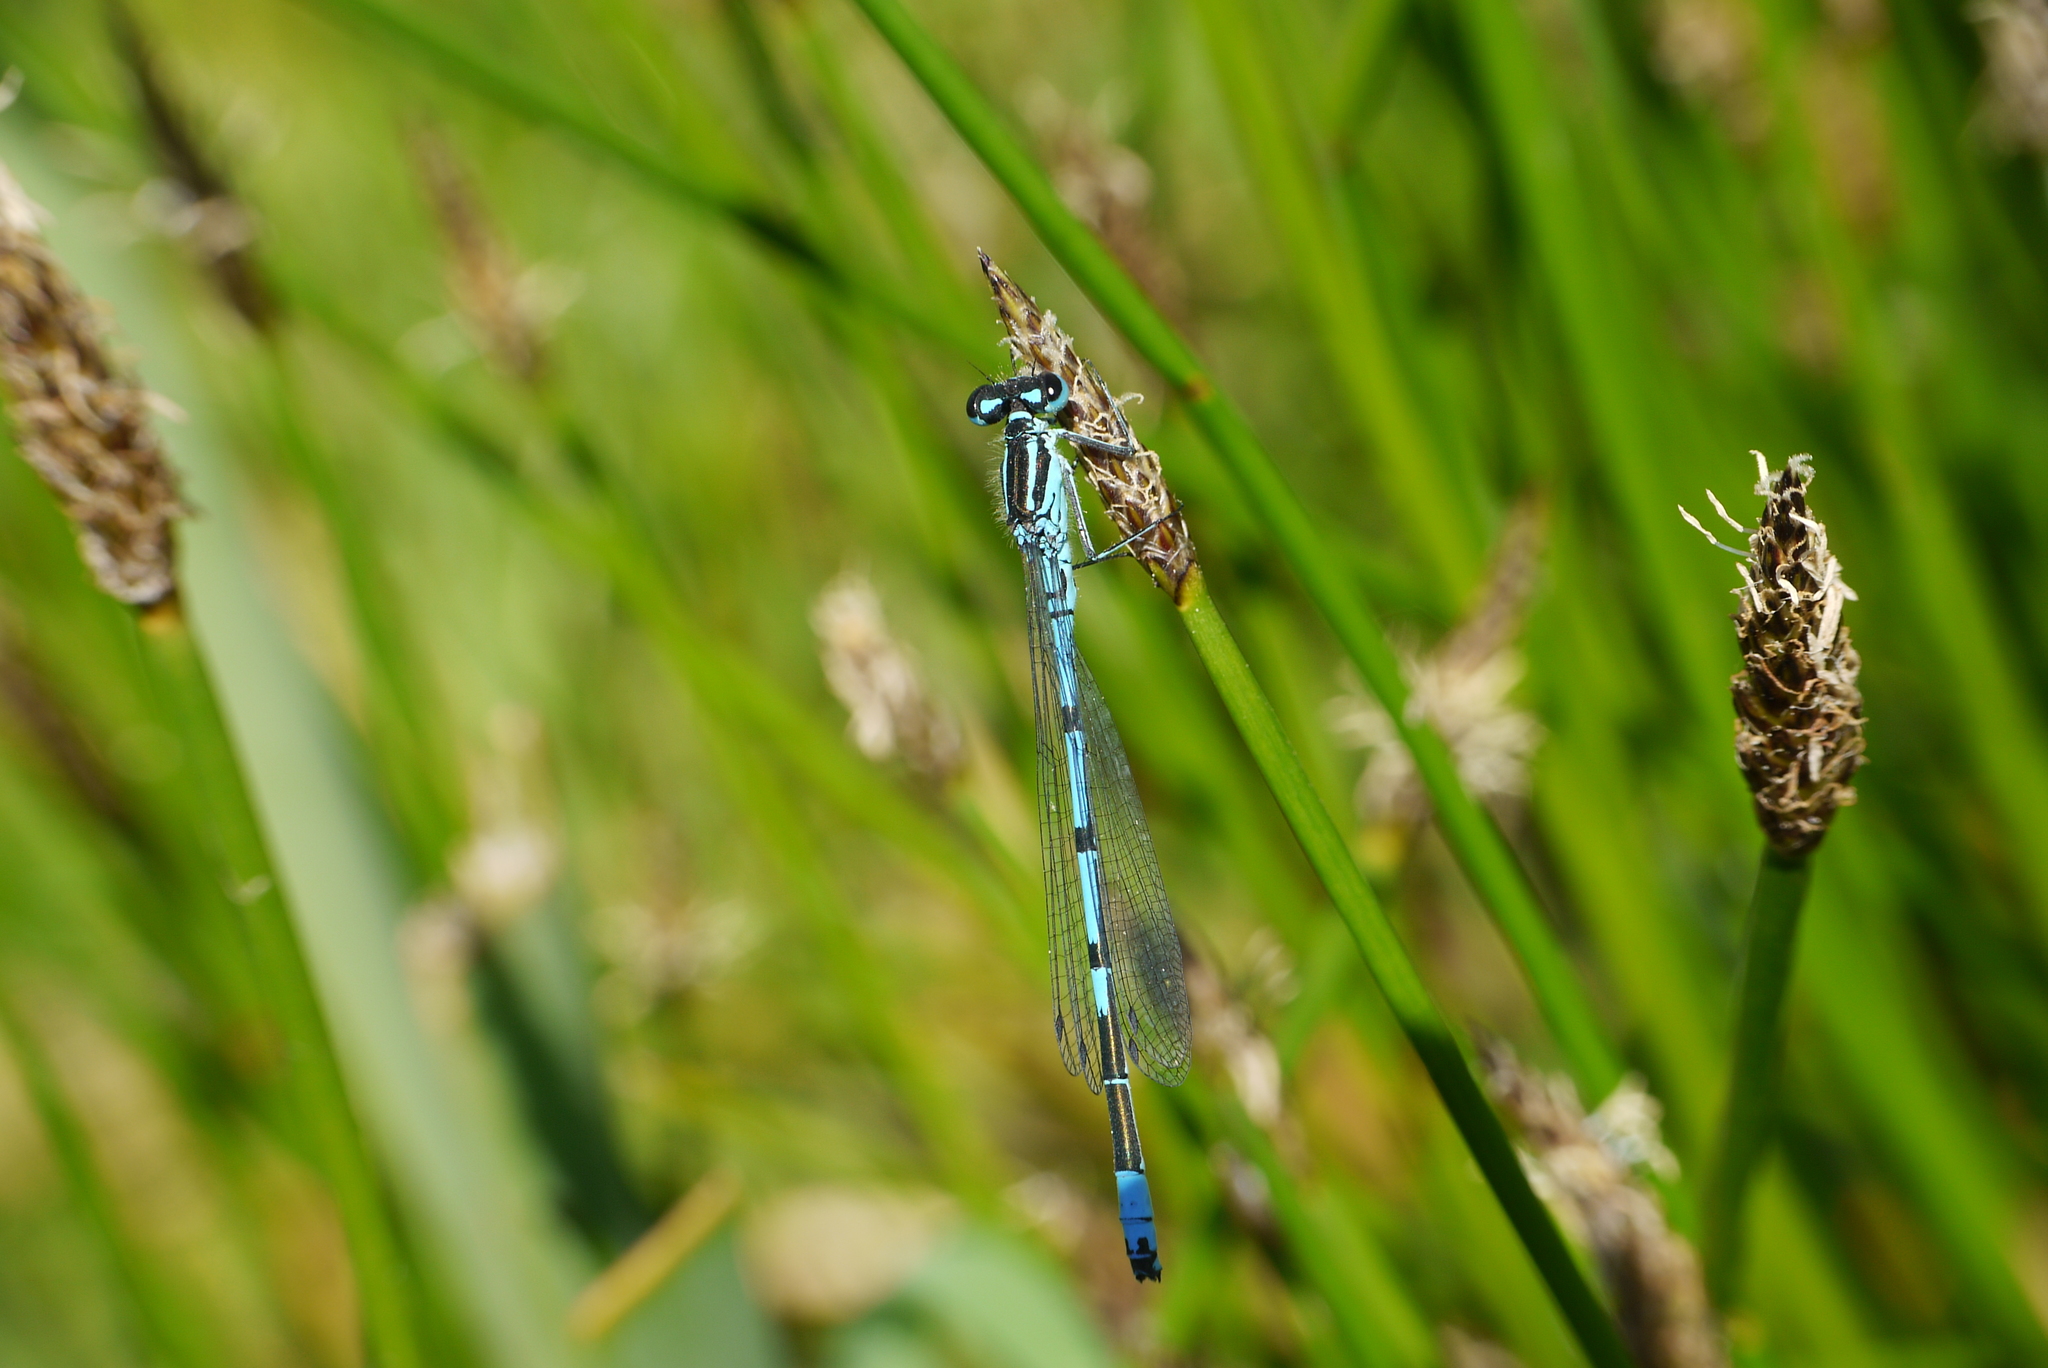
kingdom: Animalia
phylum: Arthropoda
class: Insecta
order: Odonata
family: Coenagrionidae
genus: Coenagrion
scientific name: Coenagrion puella
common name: Azure damselfly
